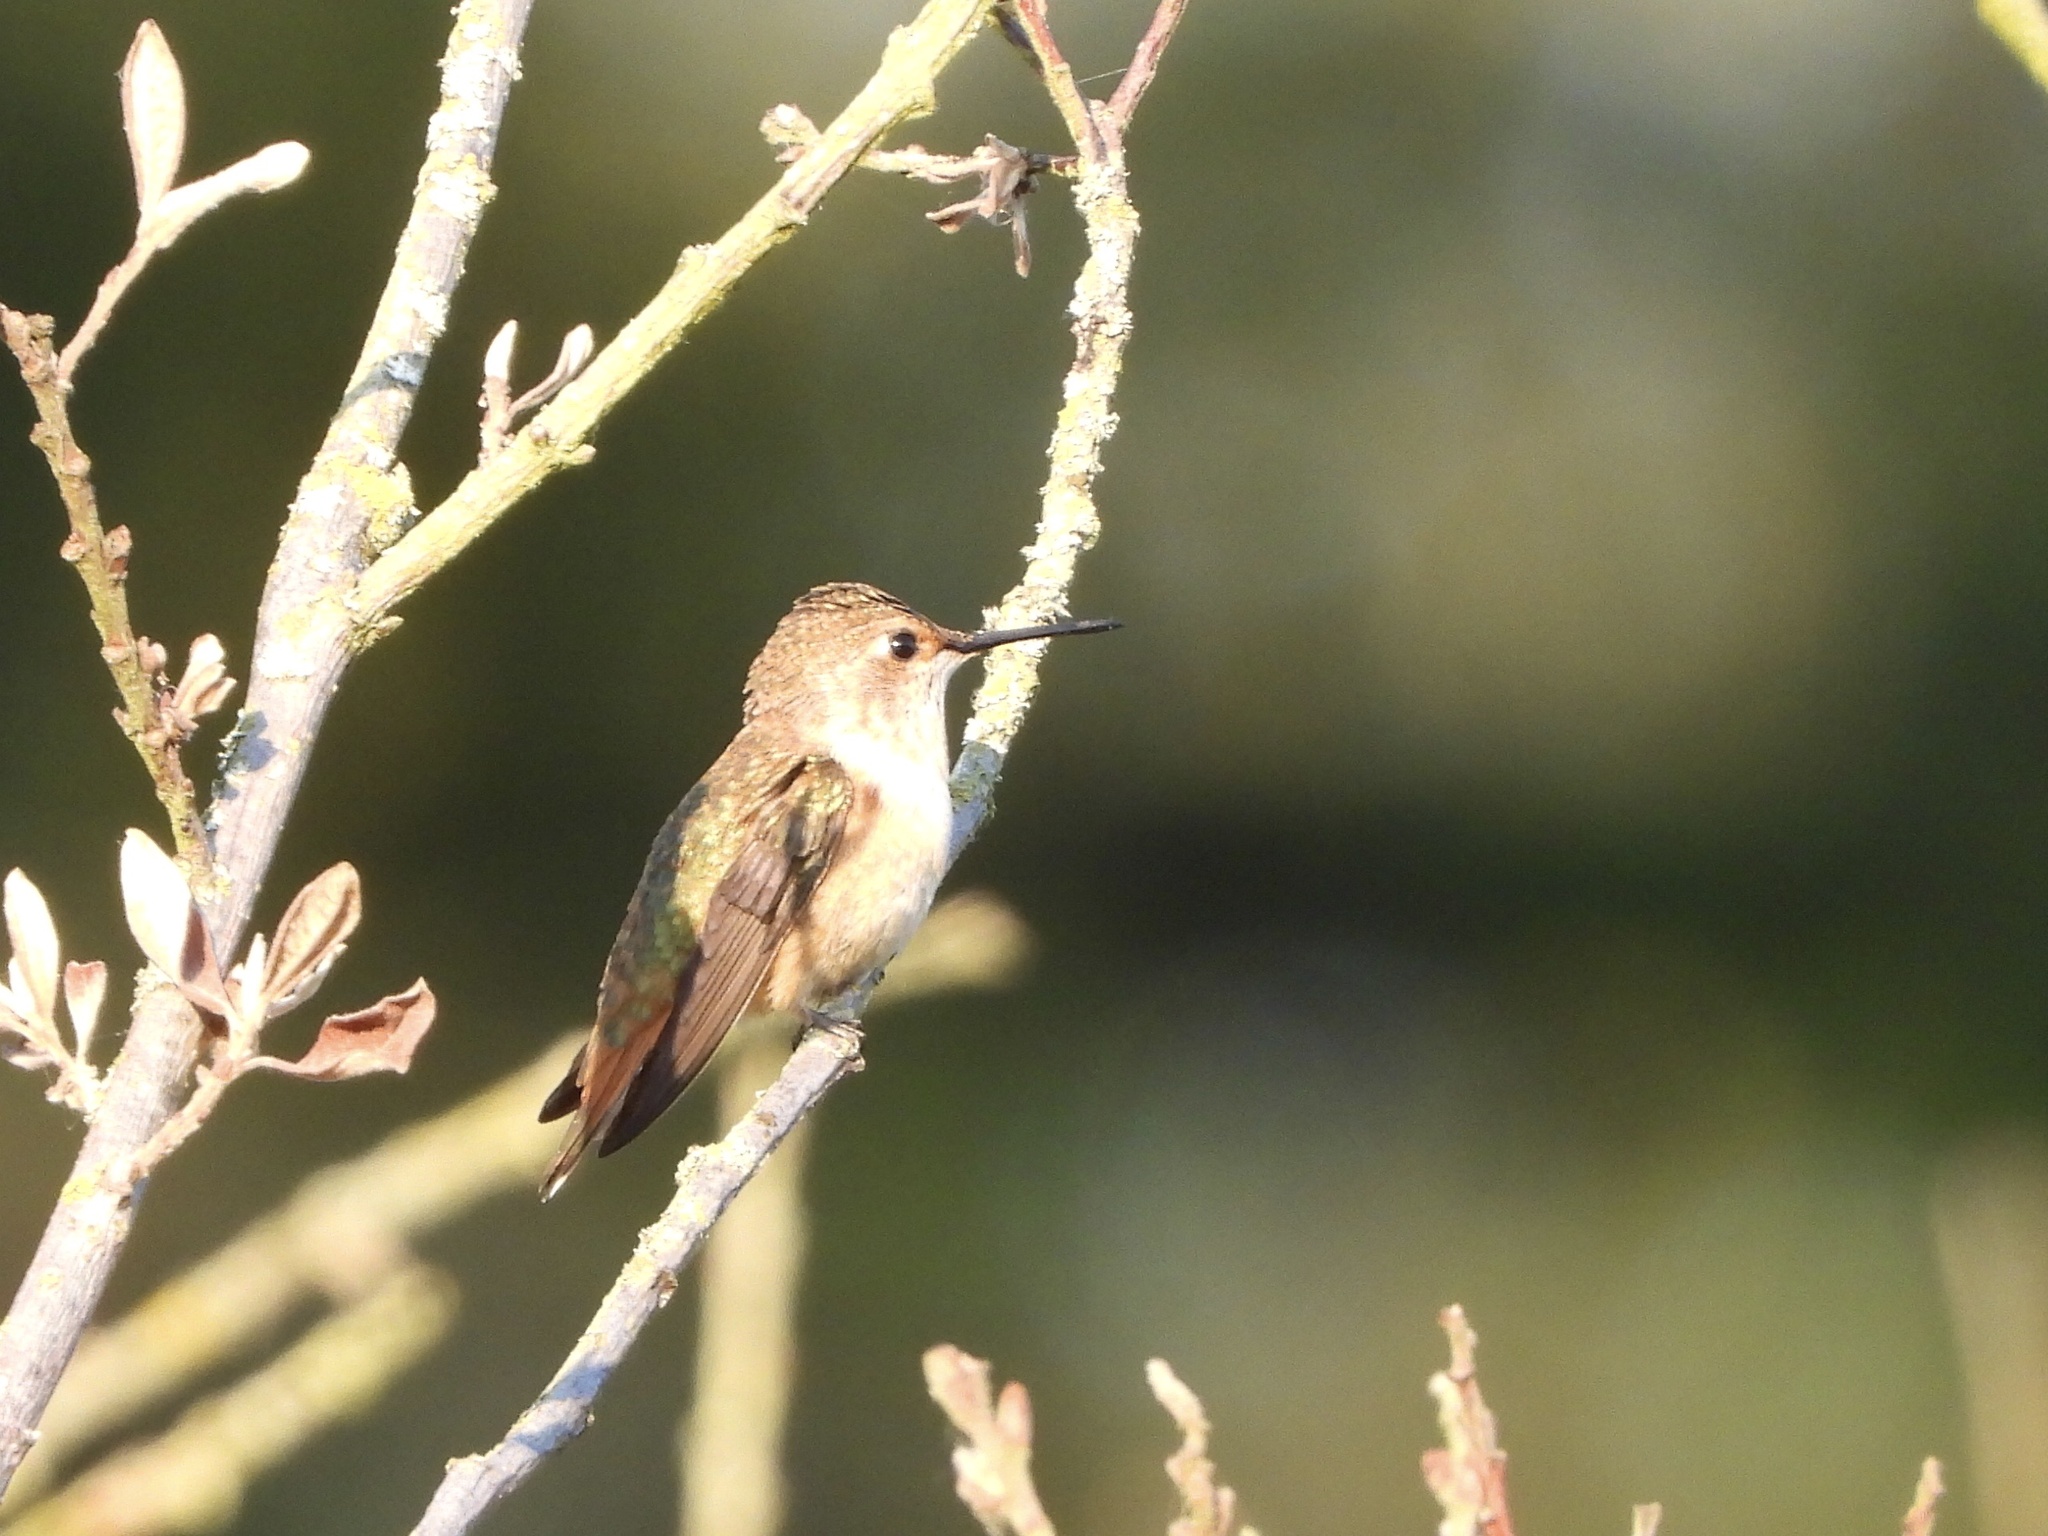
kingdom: Animalia
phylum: Chordata
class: Aves
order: Apodiformes
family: Trochilidae
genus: Selasphorus
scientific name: Selasphorus rufus
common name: Rufous hummingbird
